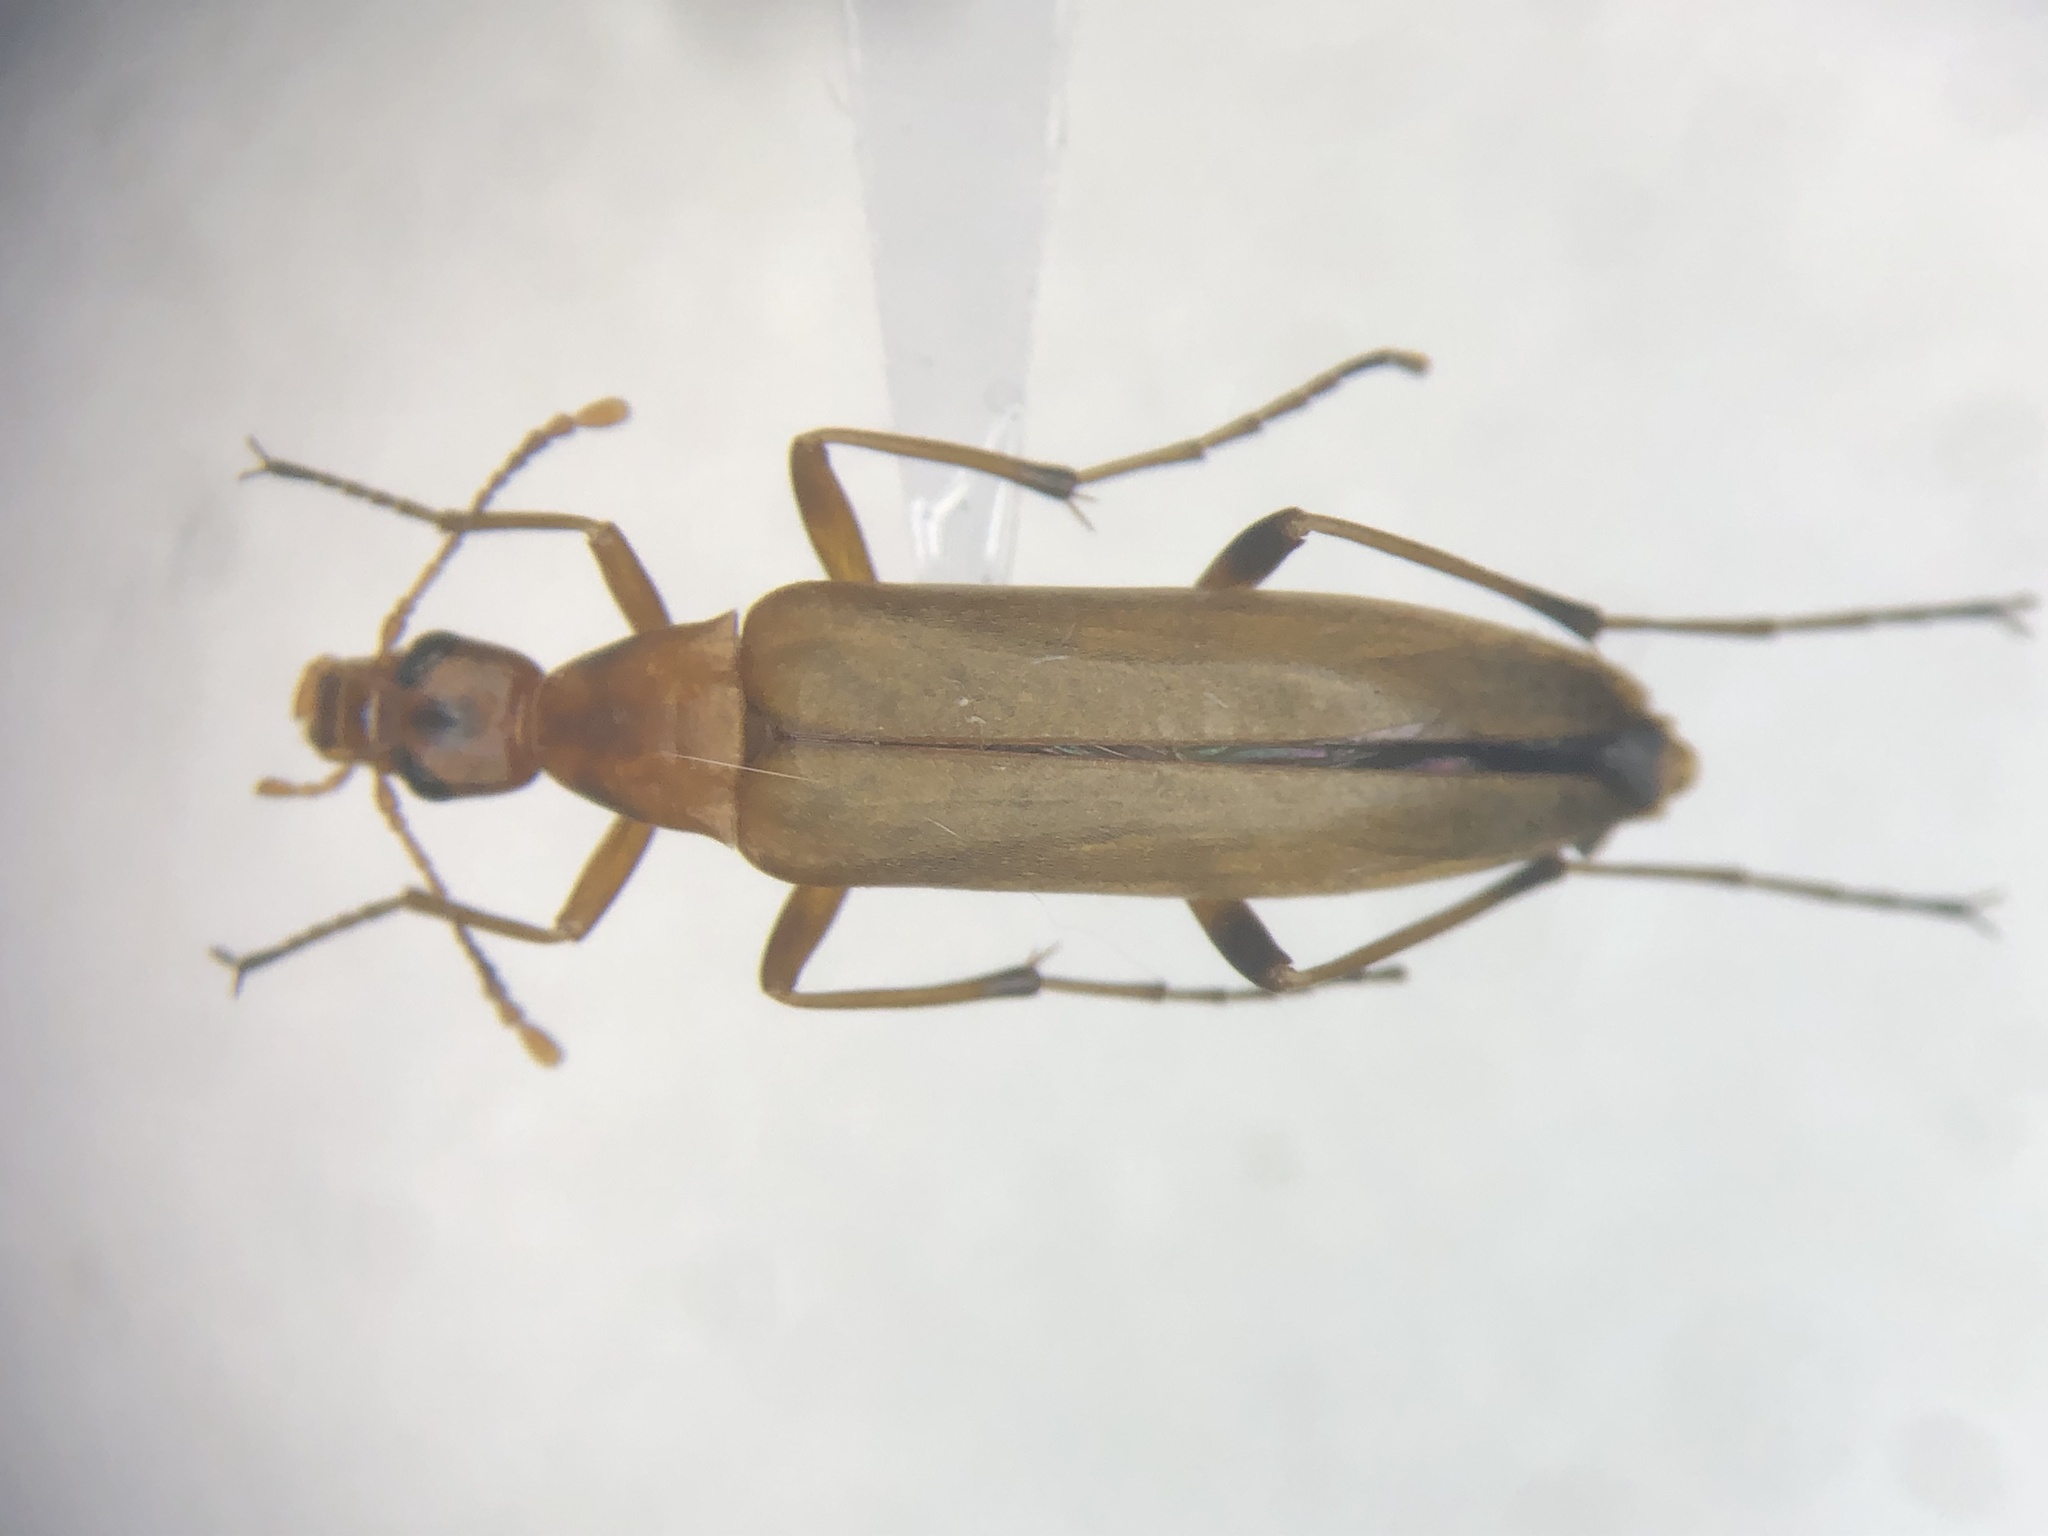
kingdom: Animalia
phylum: Arthropoda
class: Insecta
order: Coleoptera
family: Stenotrachelidae
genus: Cephaloon
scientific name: Cephaloon lepturides
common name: False leptura beetle
